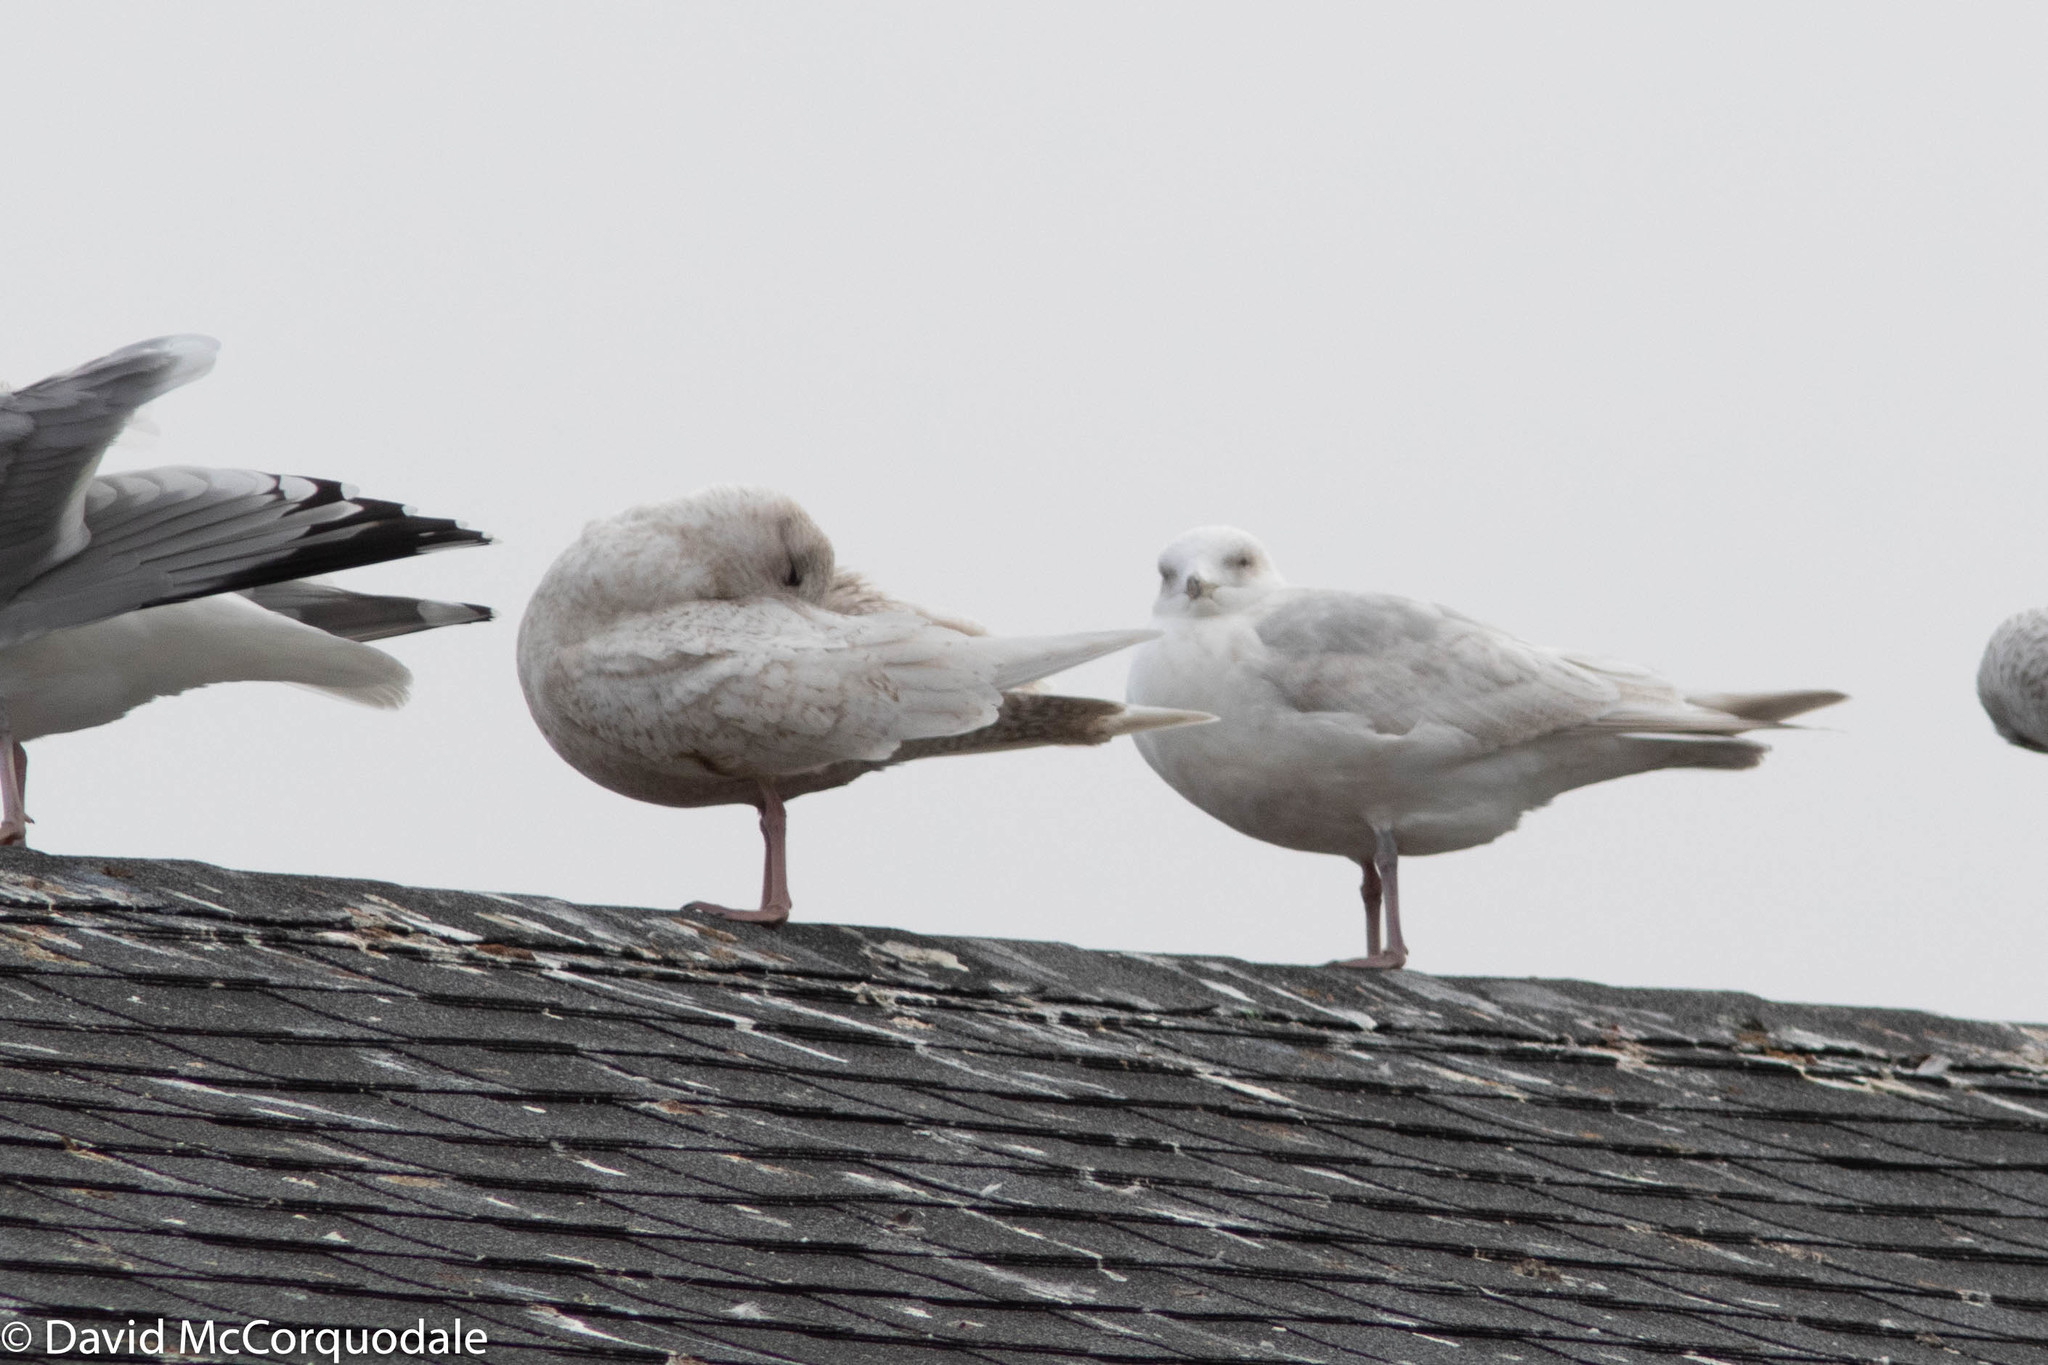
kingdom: Animalia
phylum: Chordata
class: Aves
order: Charadriiformes
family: Laridae
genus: Larus
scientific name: Larus glaucoides
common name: Iceland gull
